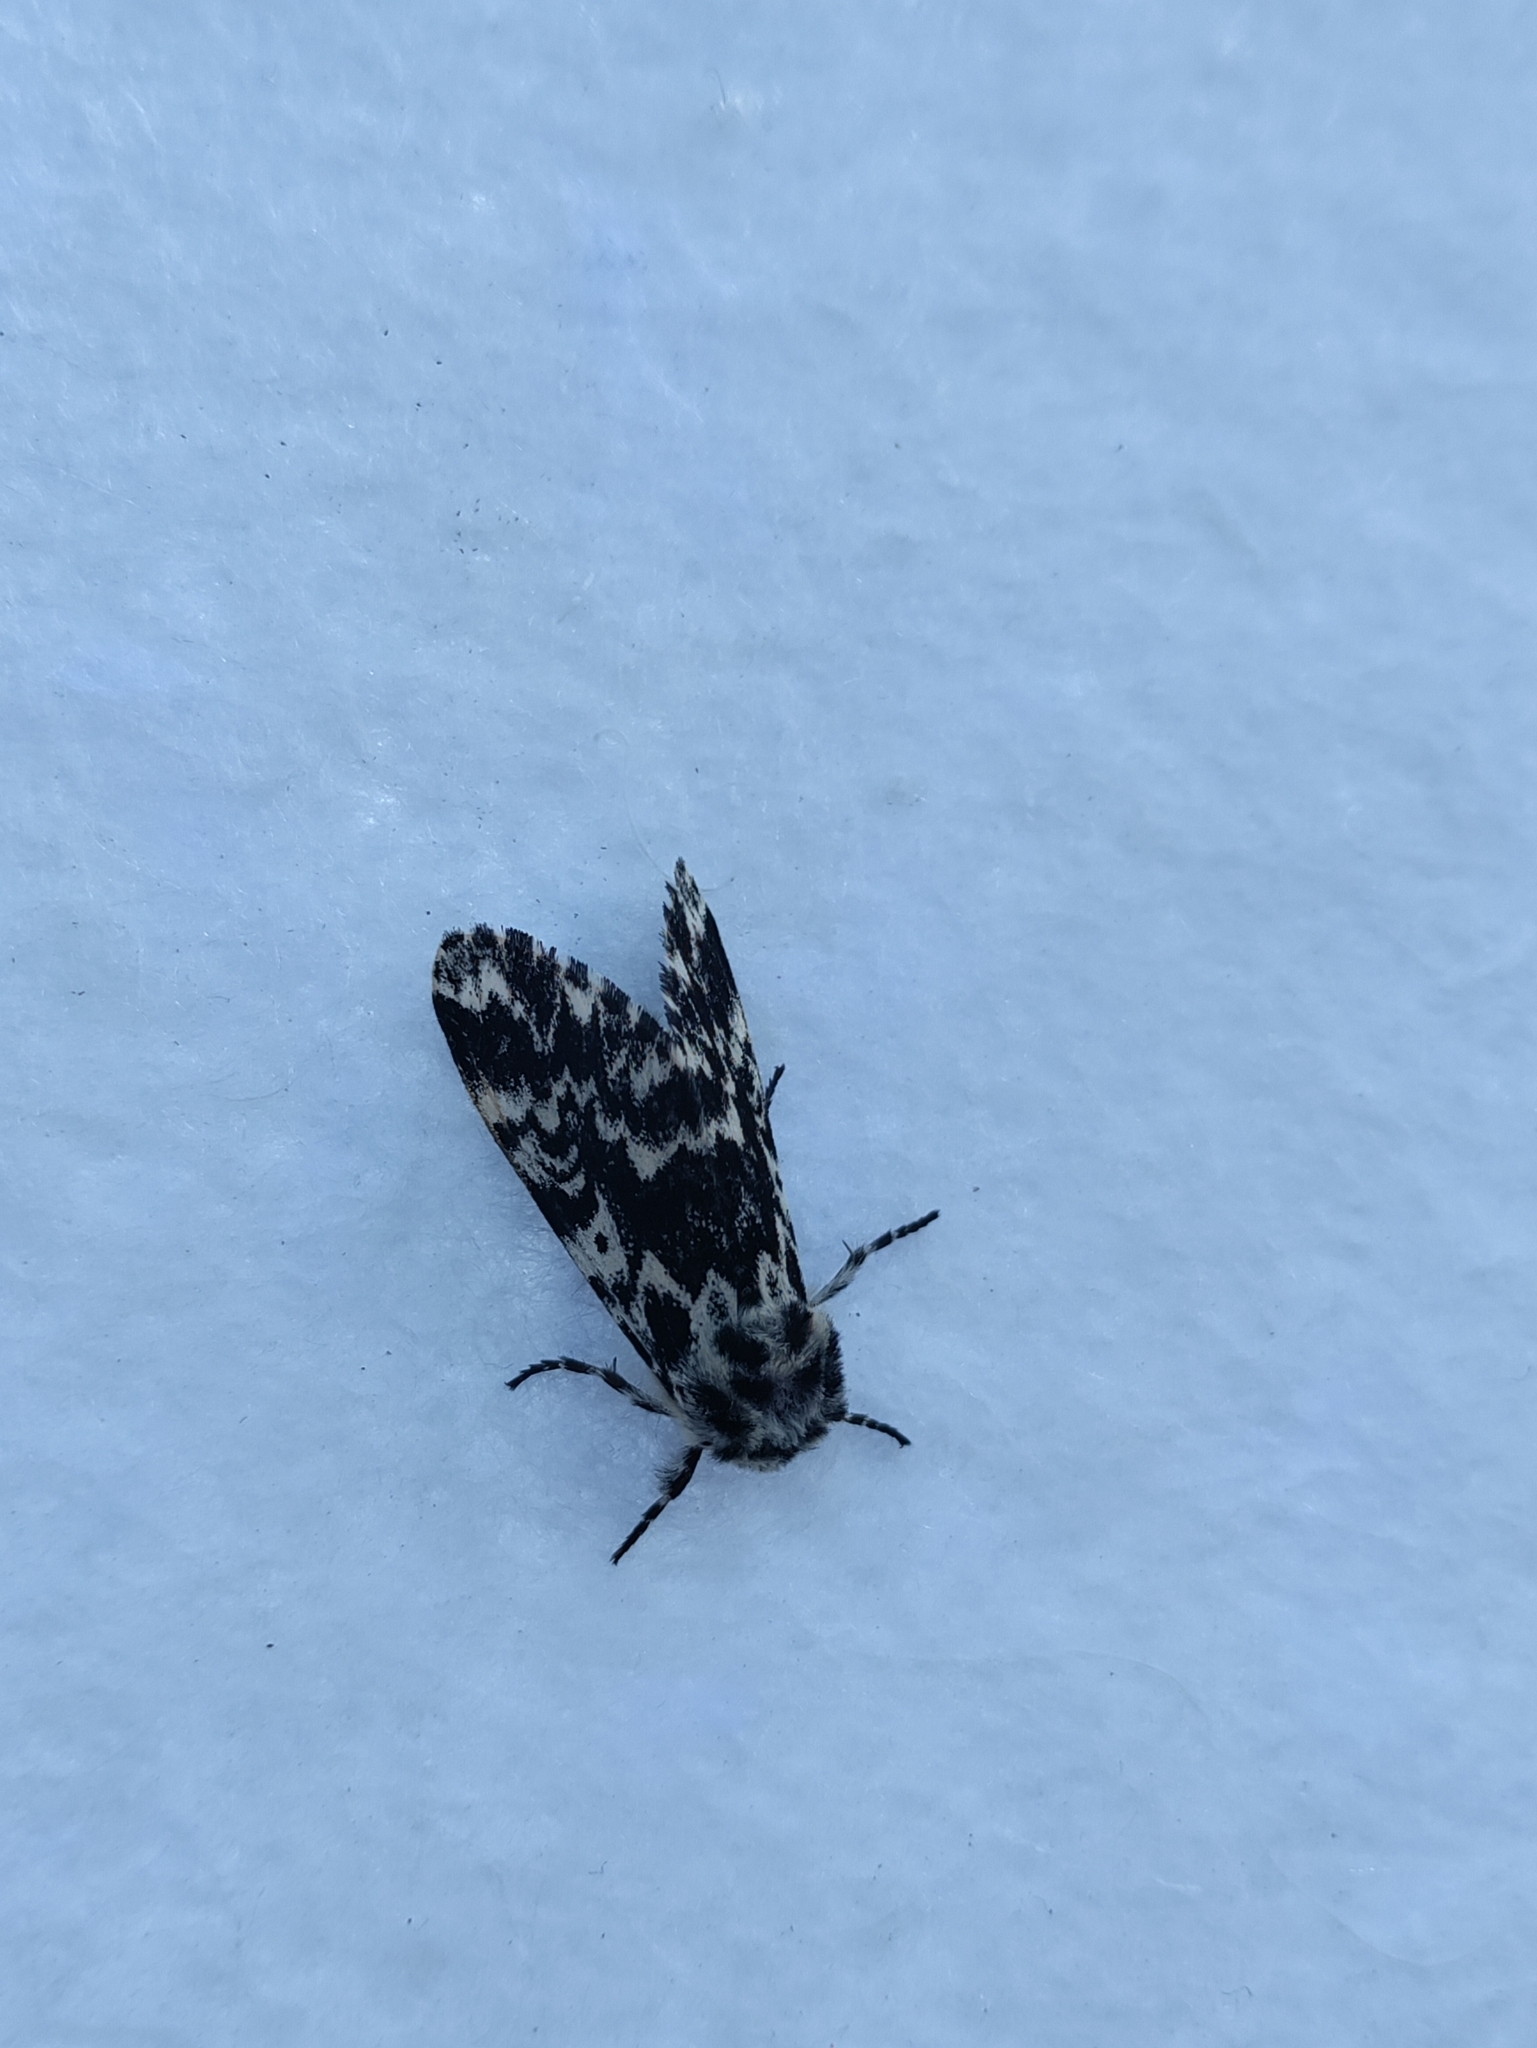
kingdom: Animalia
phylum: Arthropoda
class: Insecta
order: Lepidoptera
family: Noctuidae
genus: Panthea
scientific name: Panthea coenobita
